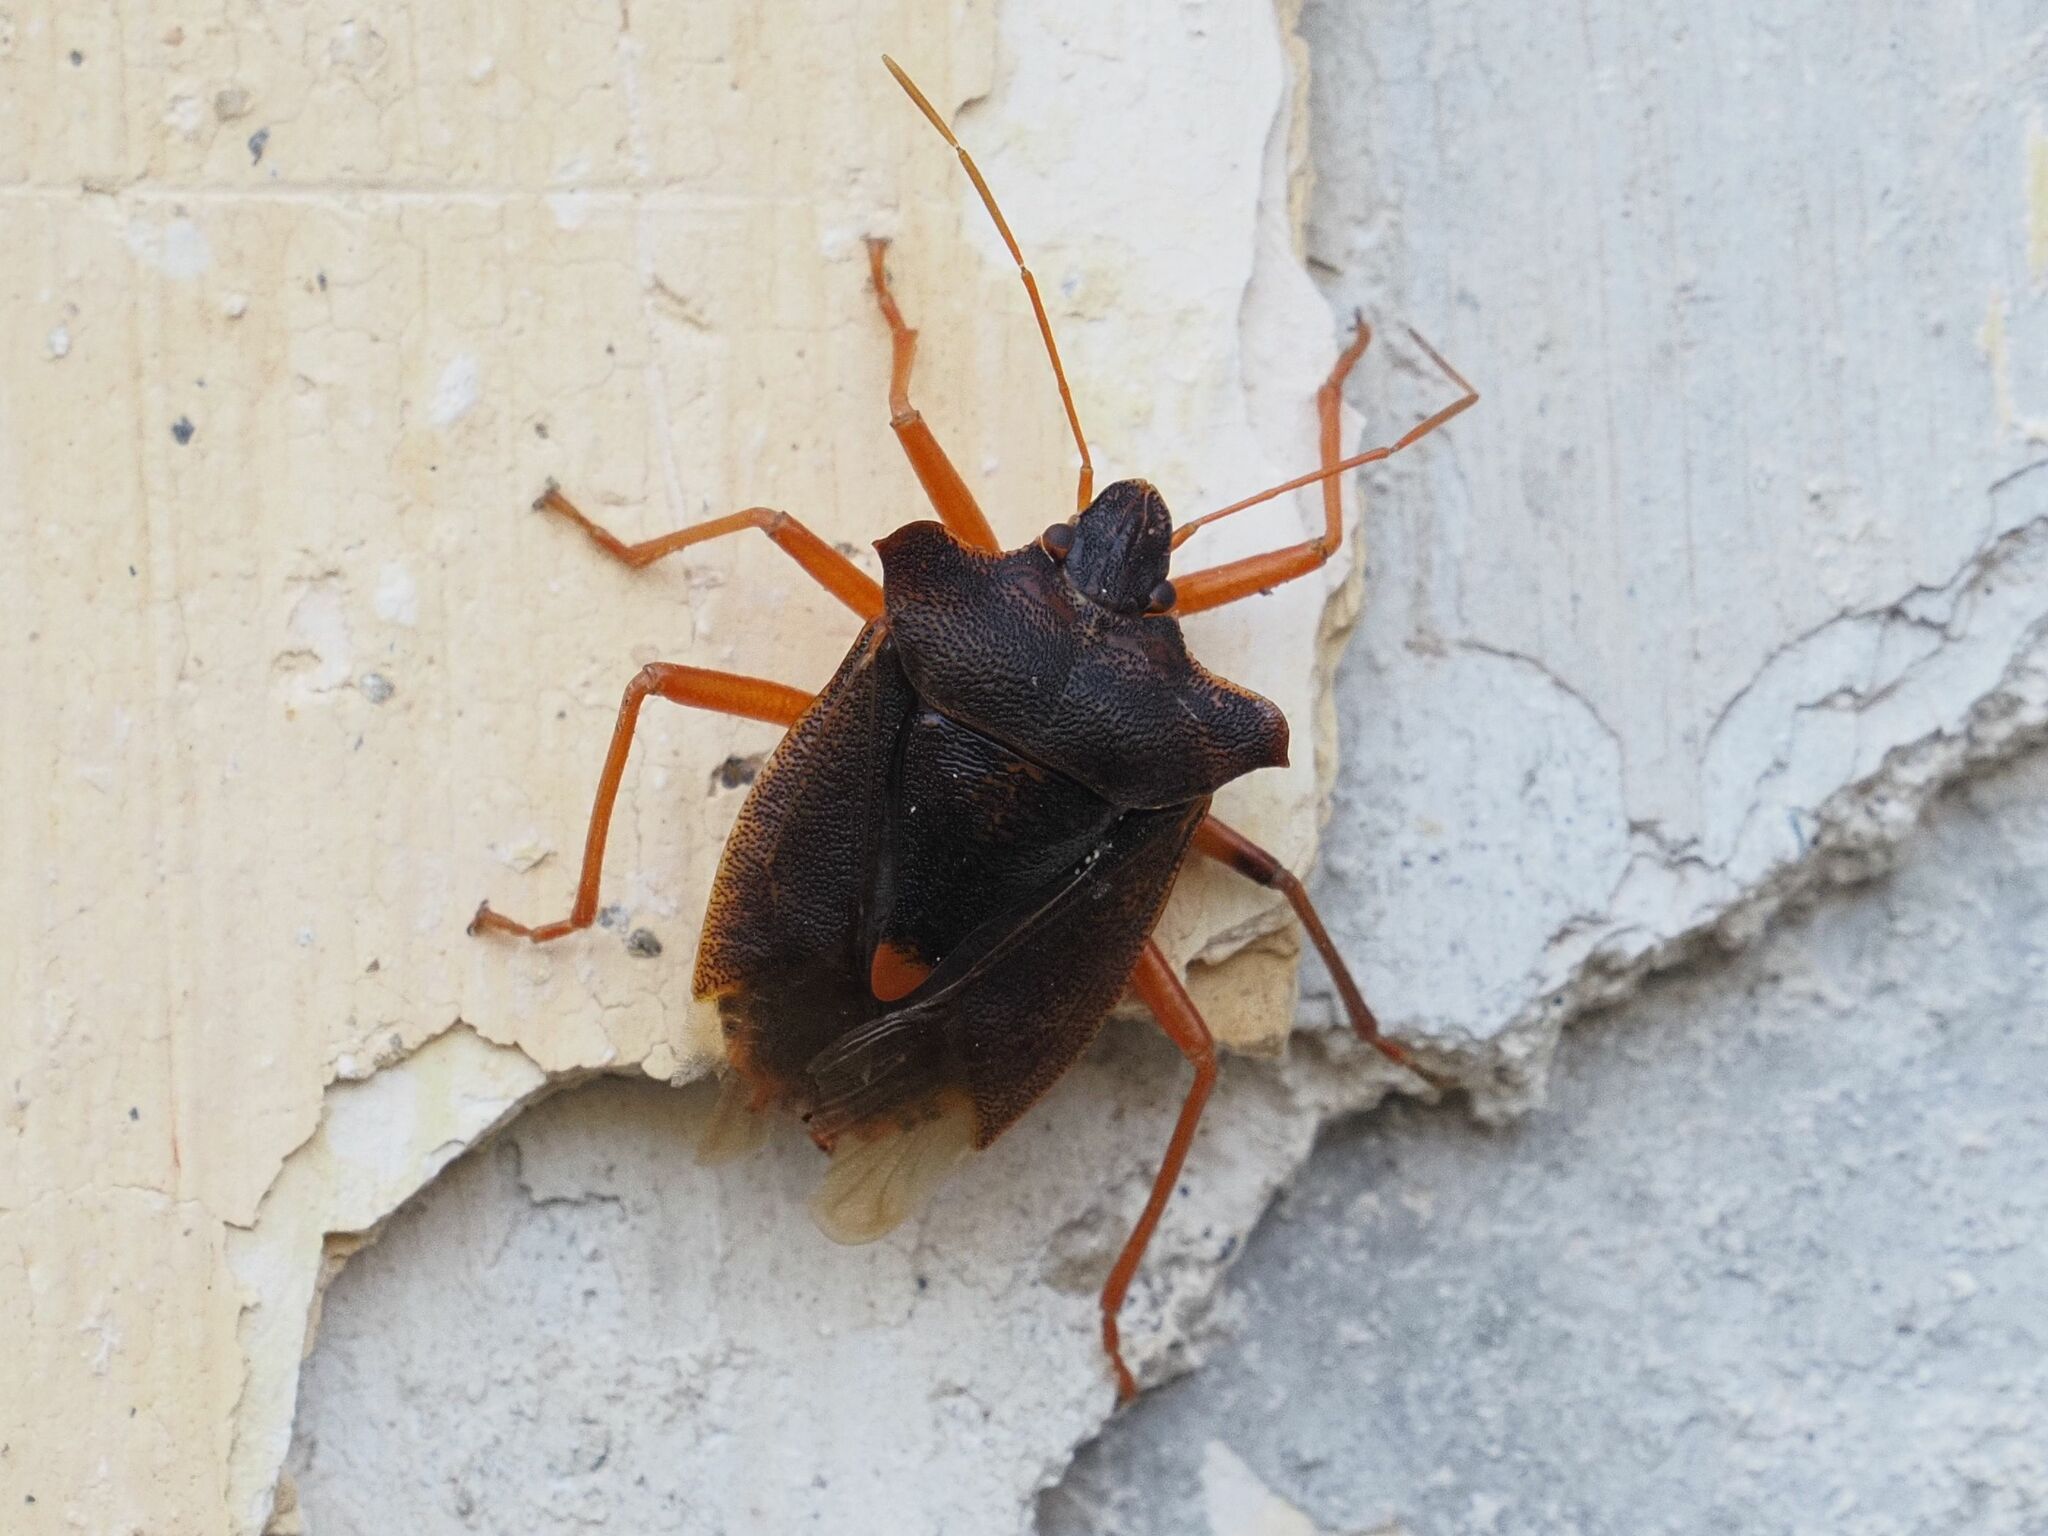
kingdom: Animalia
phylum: Arthropoda
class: Insecta
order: Hemiptera
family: Pentatomidae
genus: Pentatoma
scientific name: Pentatoma rufipes
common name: Forest bug
